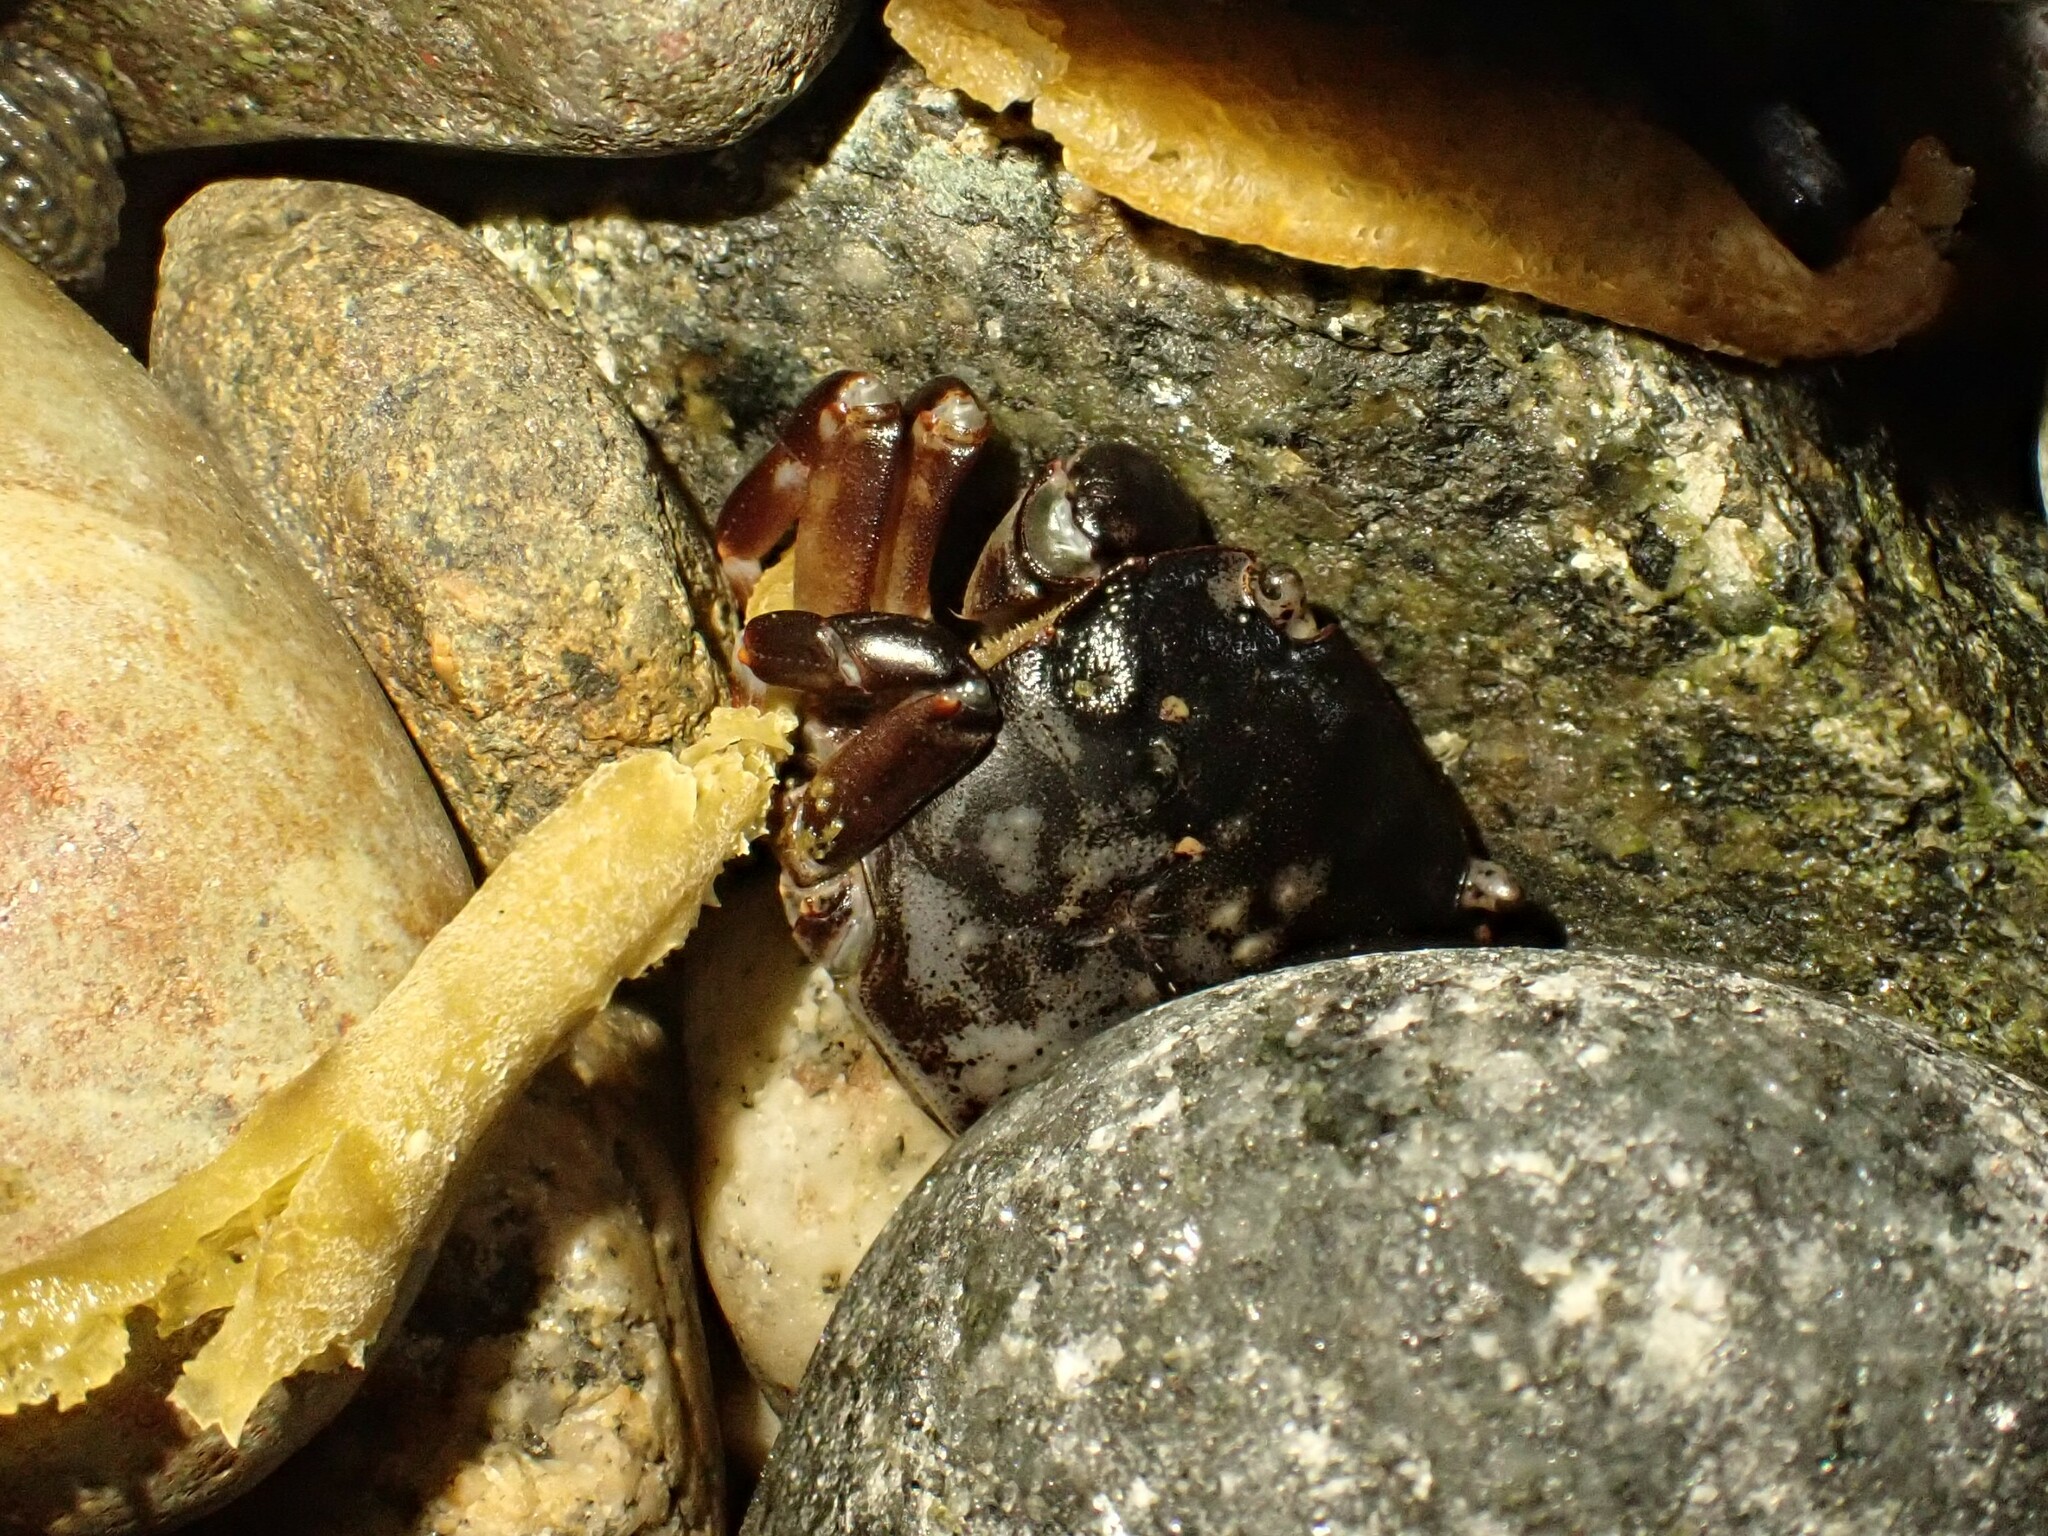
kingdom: Animalia
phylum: Arthropoda
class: Malacostraca
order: Decapoda
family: Varunidae
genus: Hemigrapsus
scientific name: Hemigrapsus sexdentatus
